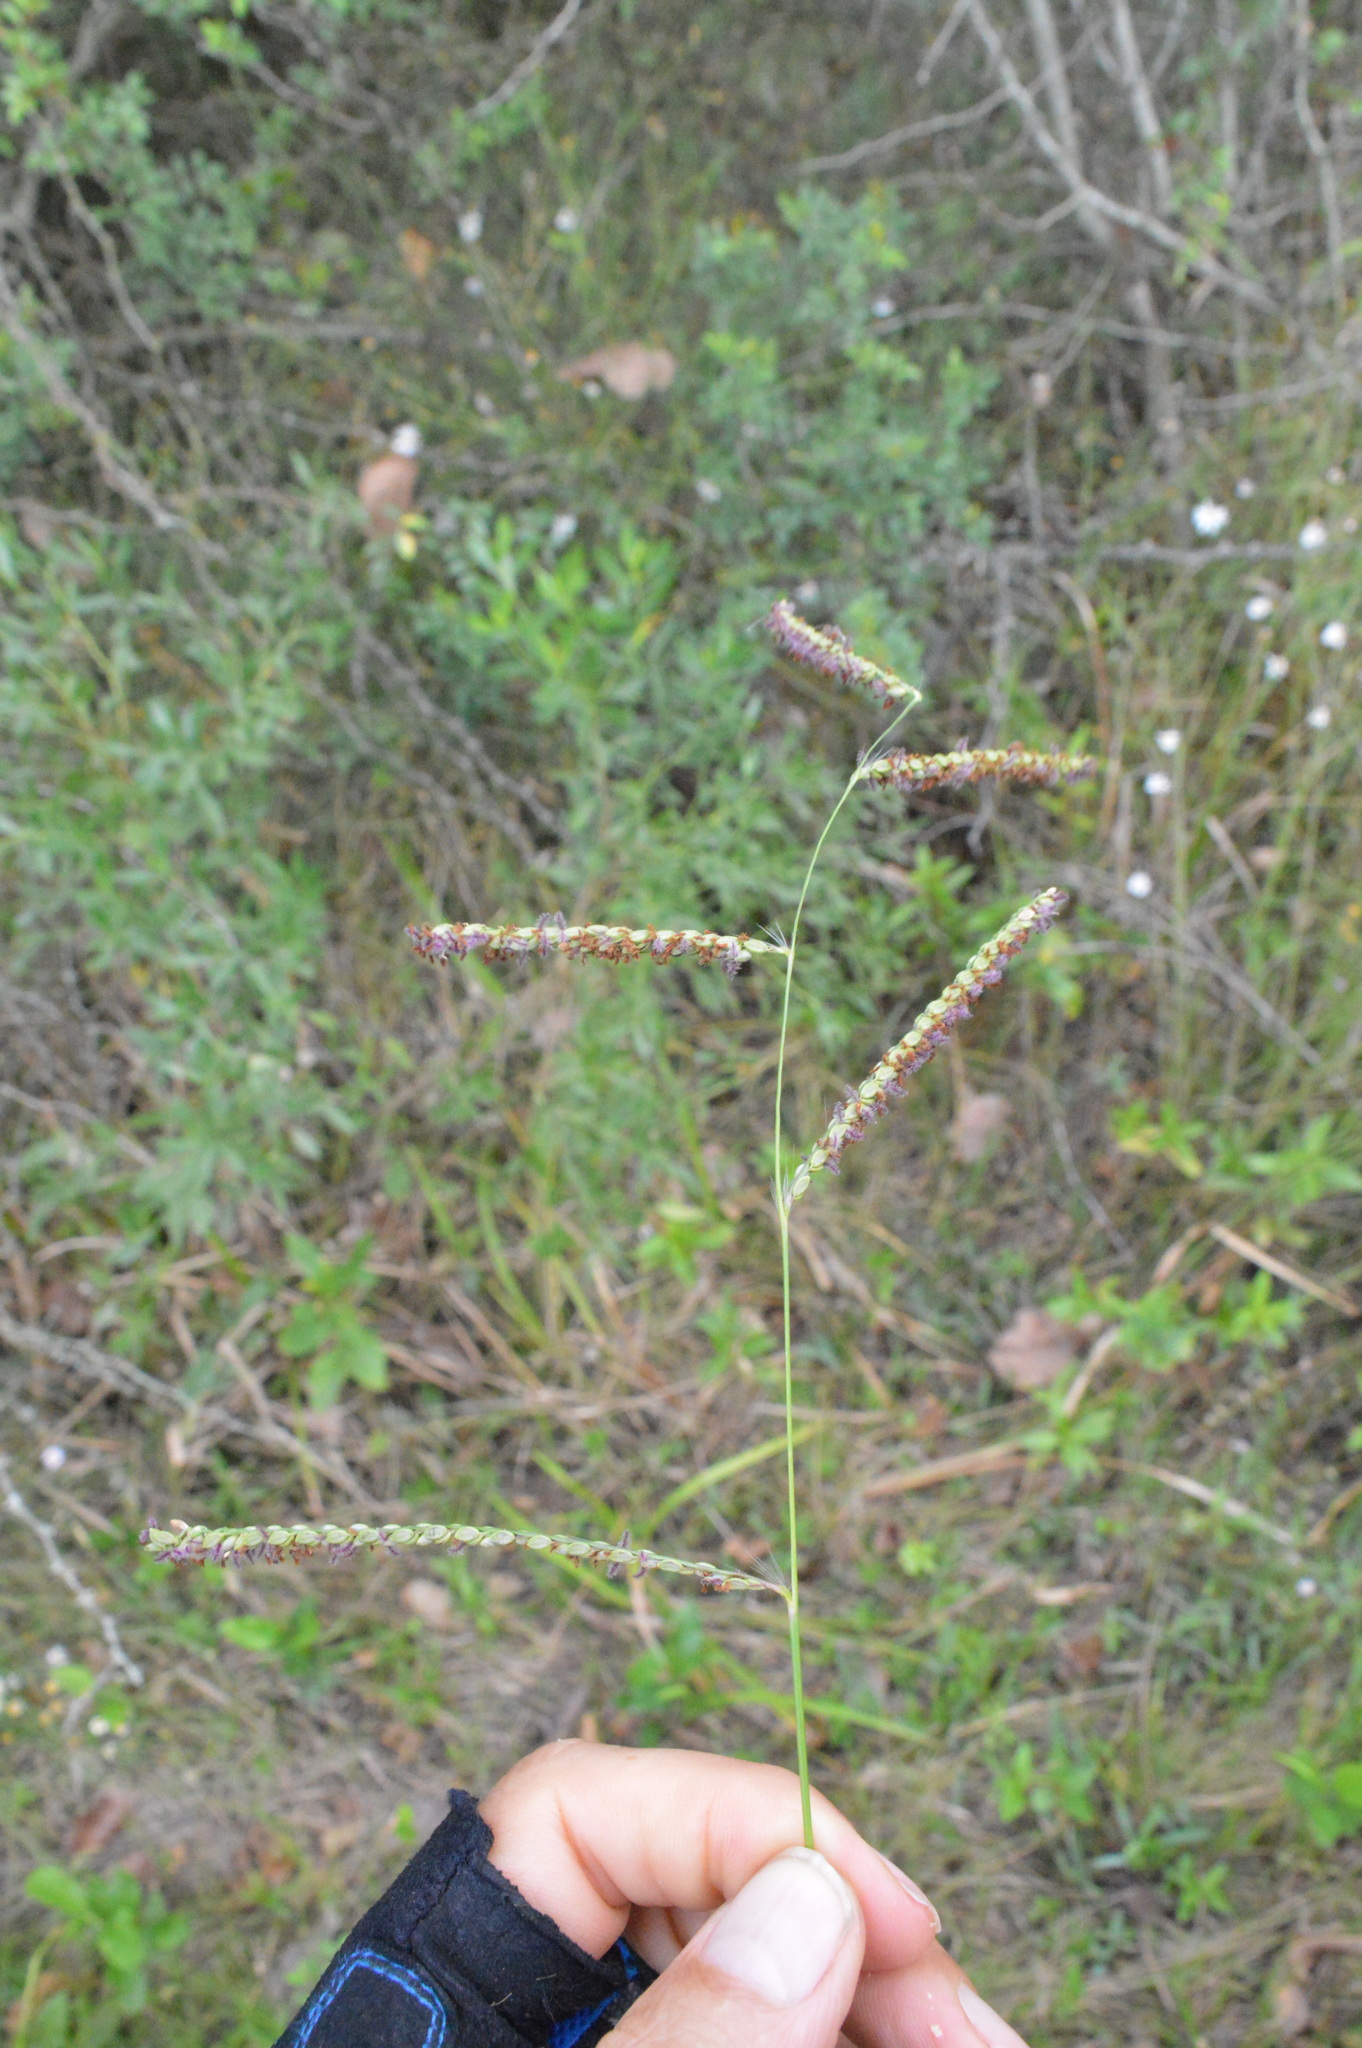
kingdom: Plantae
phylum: Tracheophyta
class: Liliopsida
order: Poales
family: Poaceae
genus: Paspalum
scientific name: Paspalum plicatulum
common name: Top paspalum
